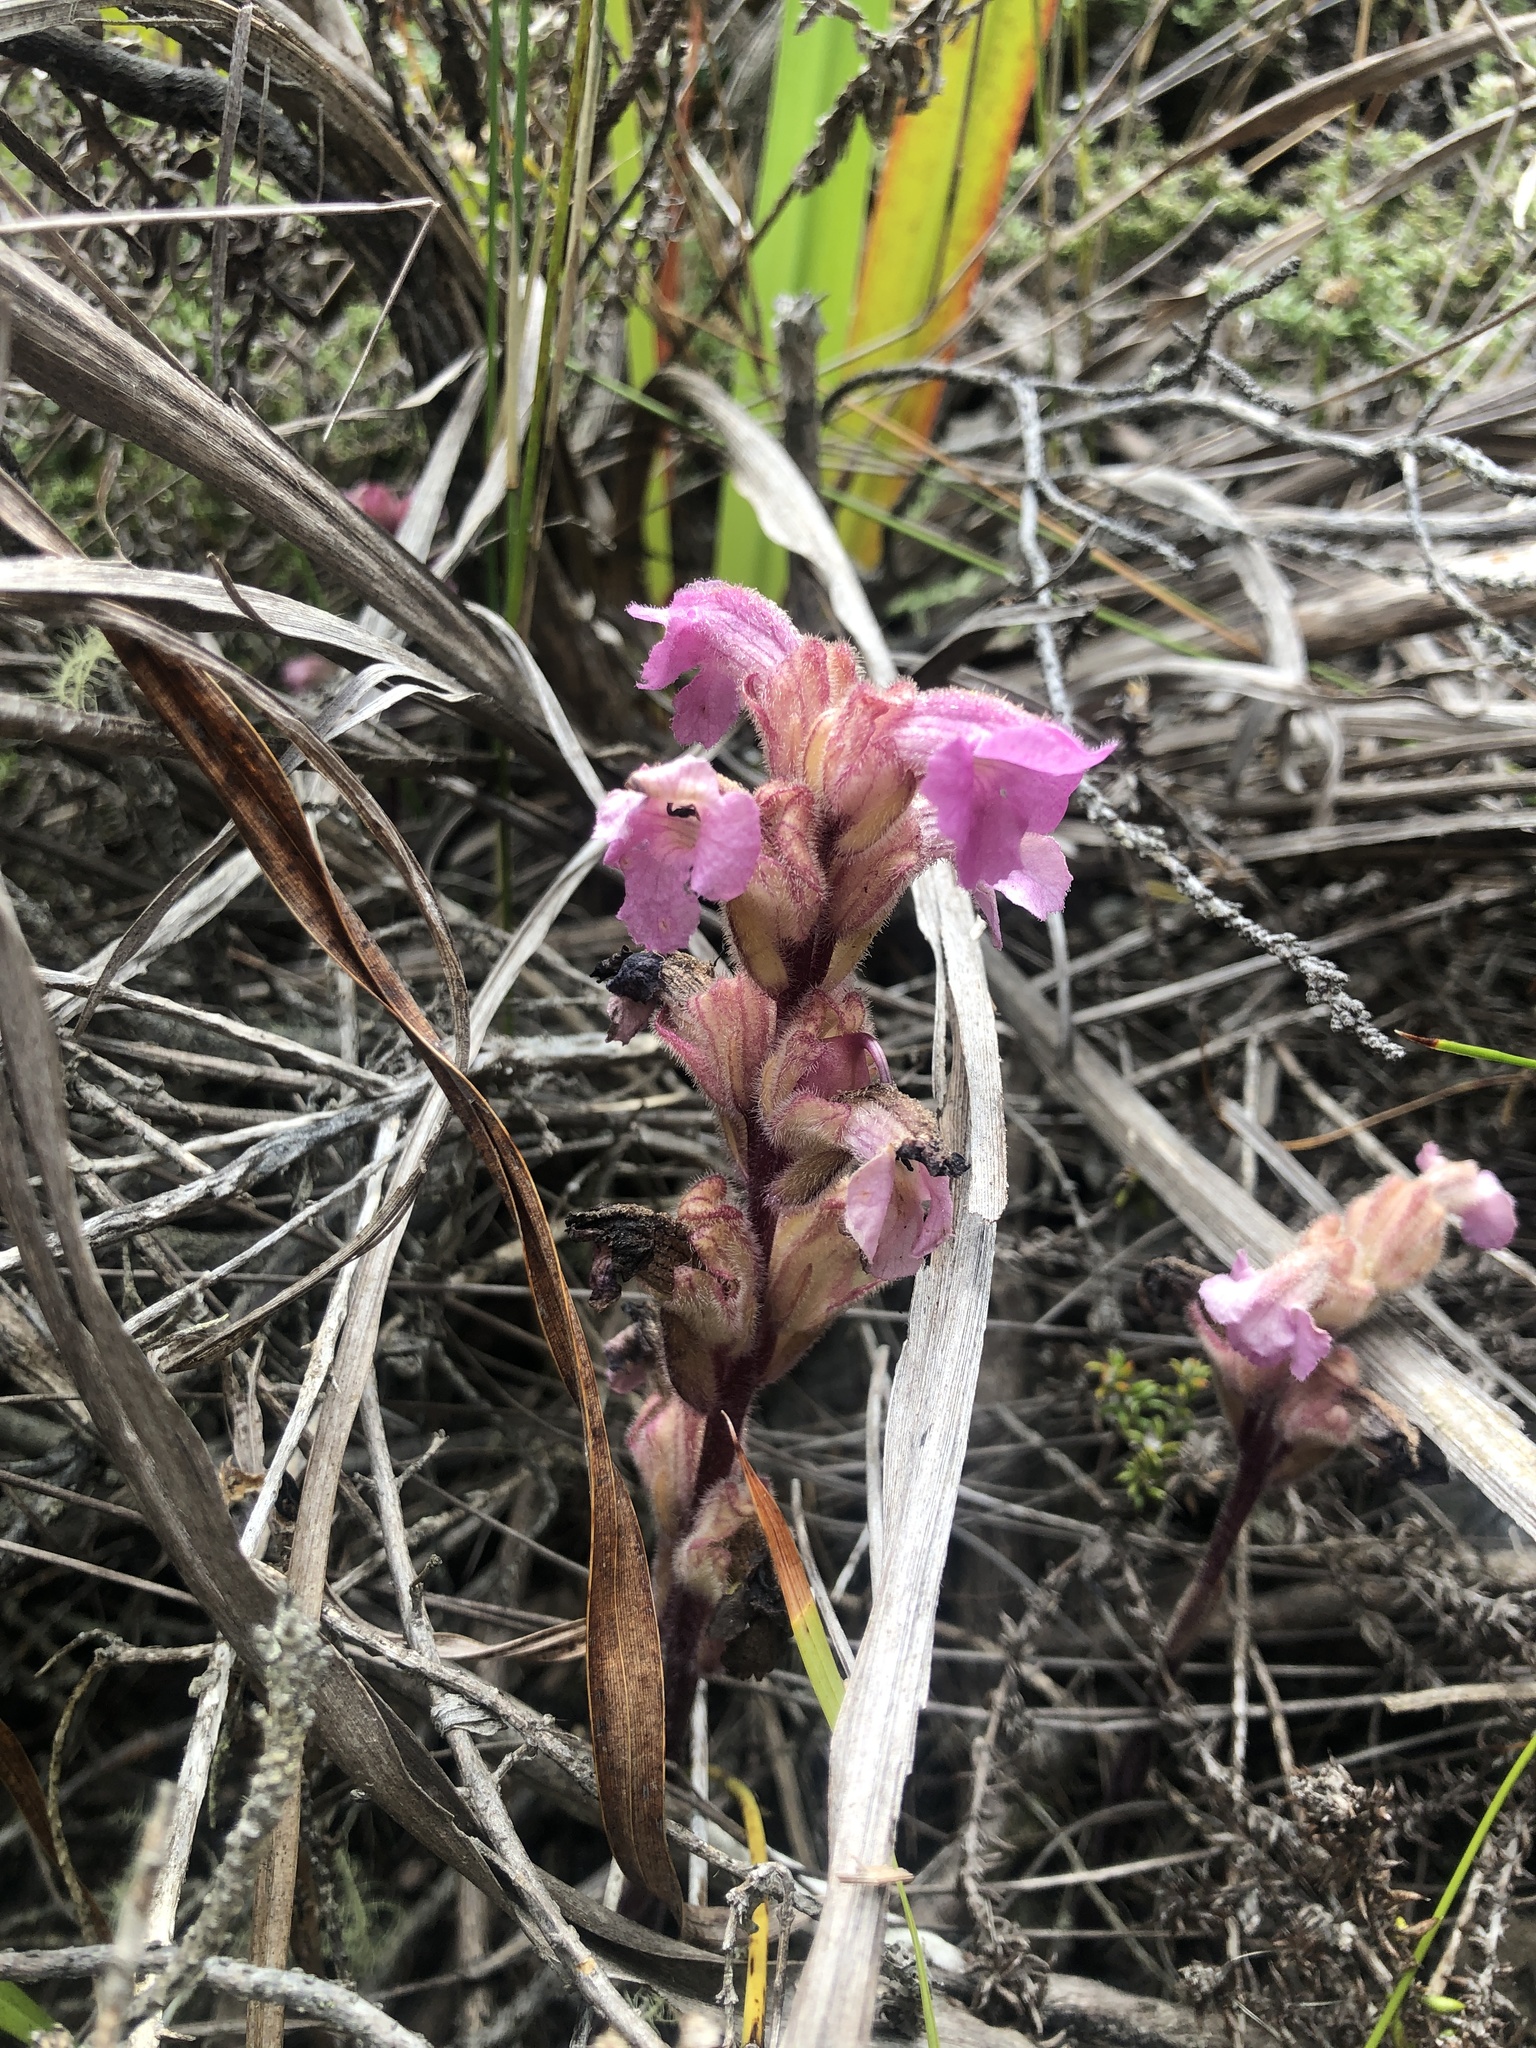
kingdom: Plantae
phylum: Tracheophyta
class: Magnoliopsida
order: Lamiales
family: Orobanchaceae
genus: Harveya
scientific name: Harveya pauciflora
